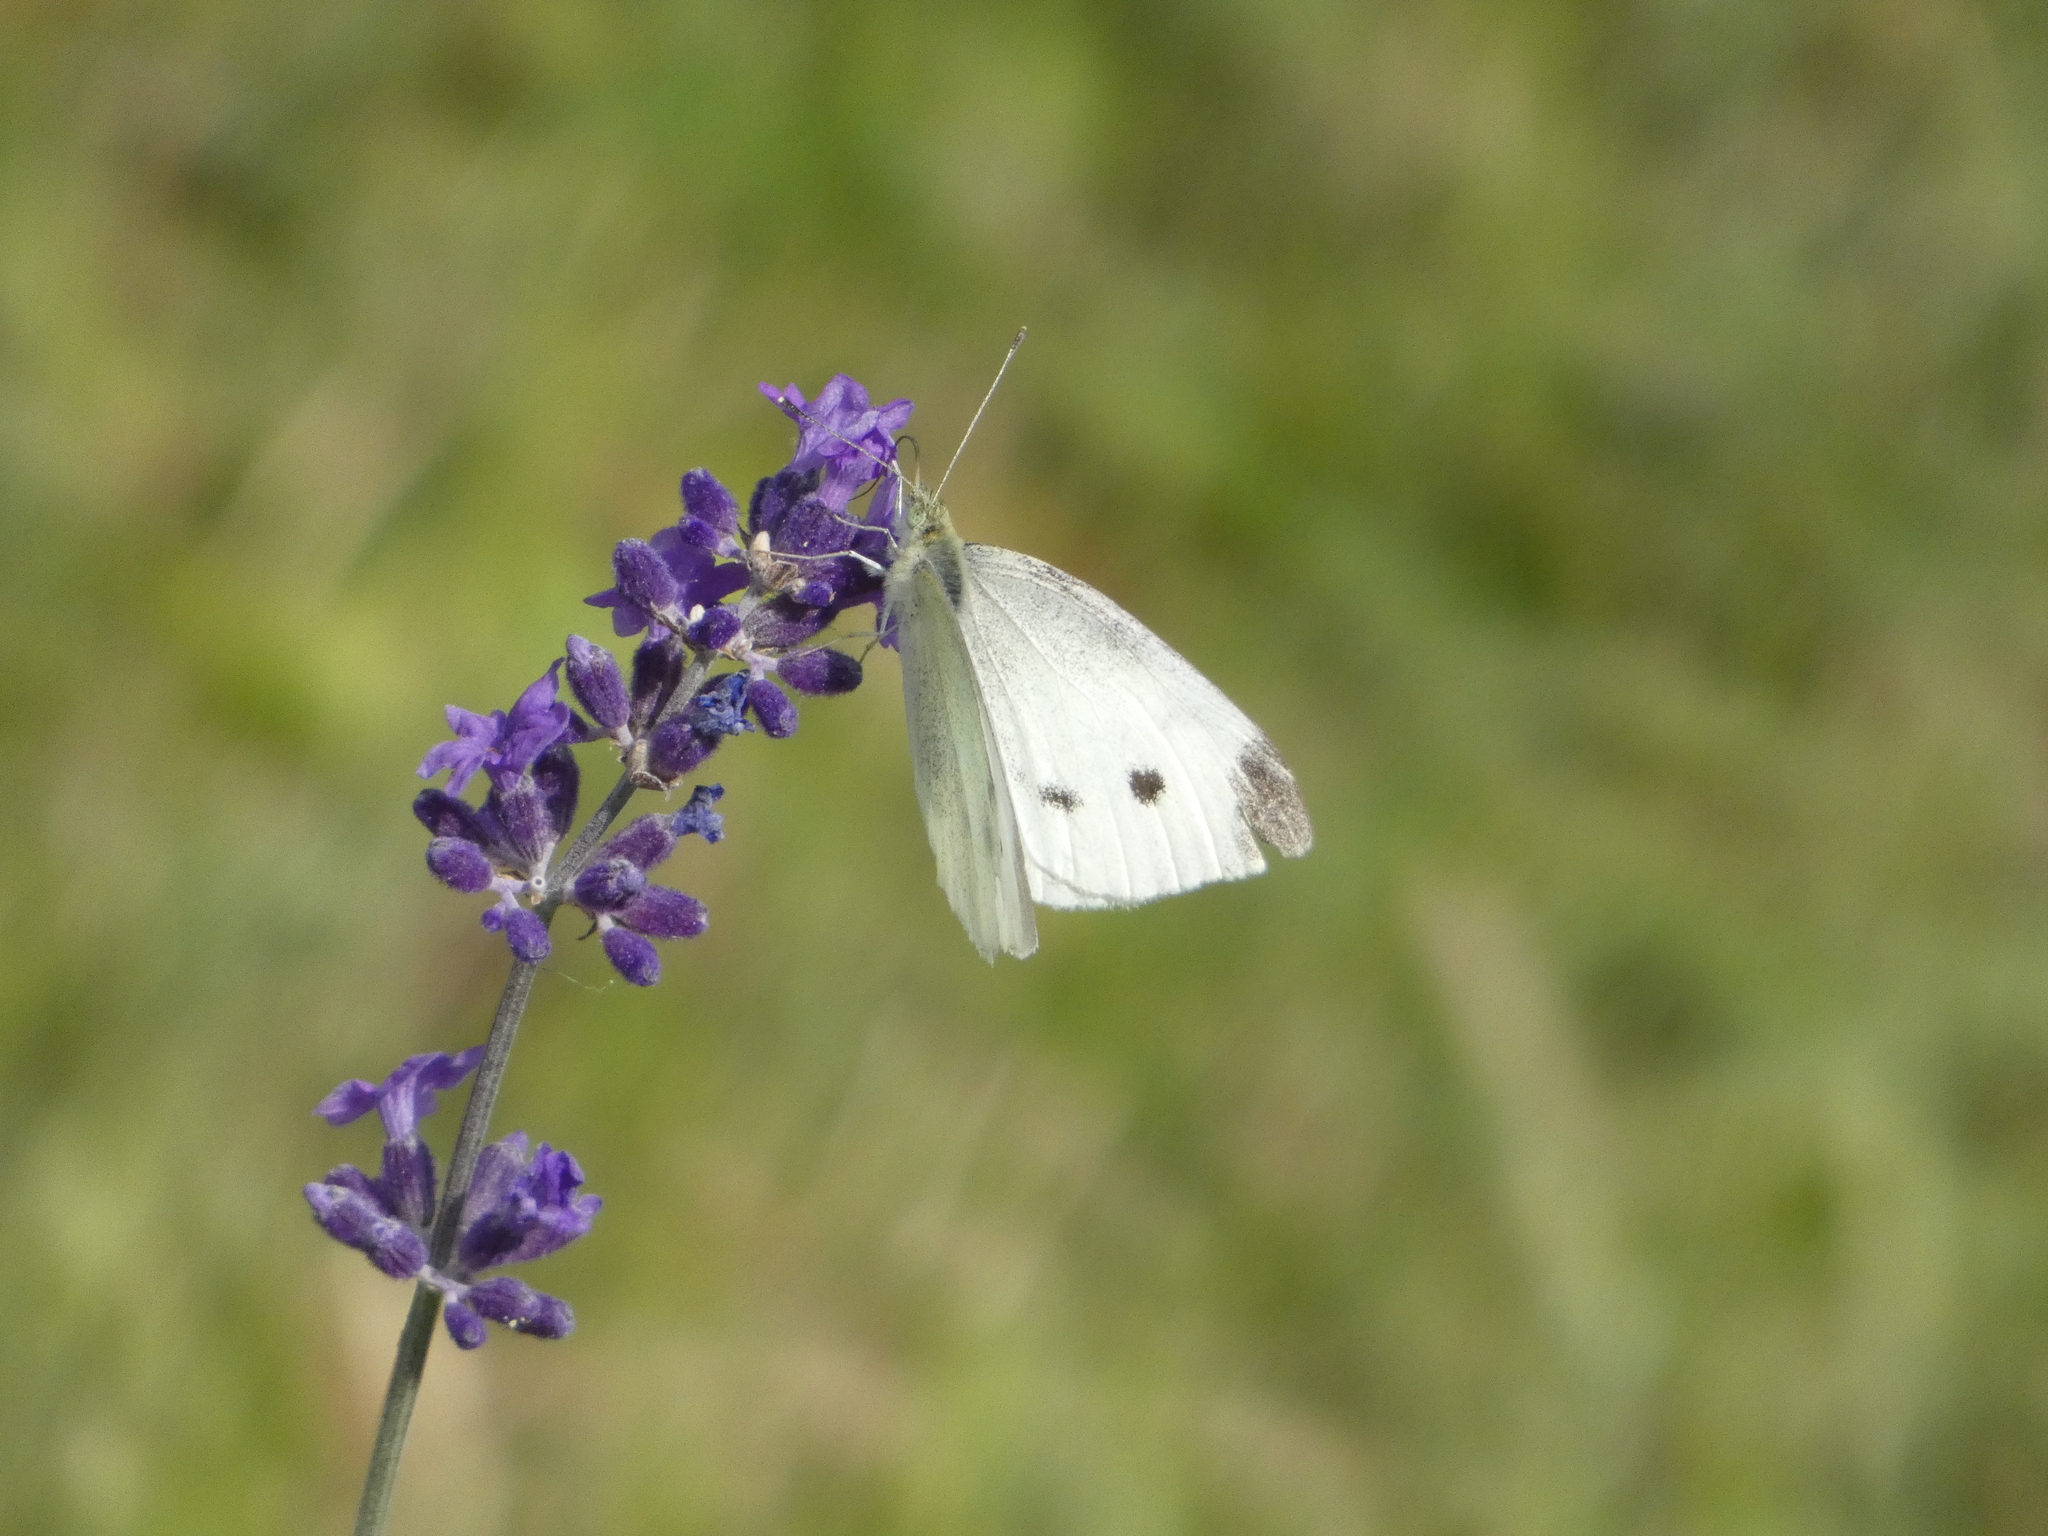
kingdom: Animalia
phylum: Arthropoda
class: Insecta
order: Lepidoptera
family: Pieridae
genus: Pieris
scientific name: Pieris rapae
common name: Small white
